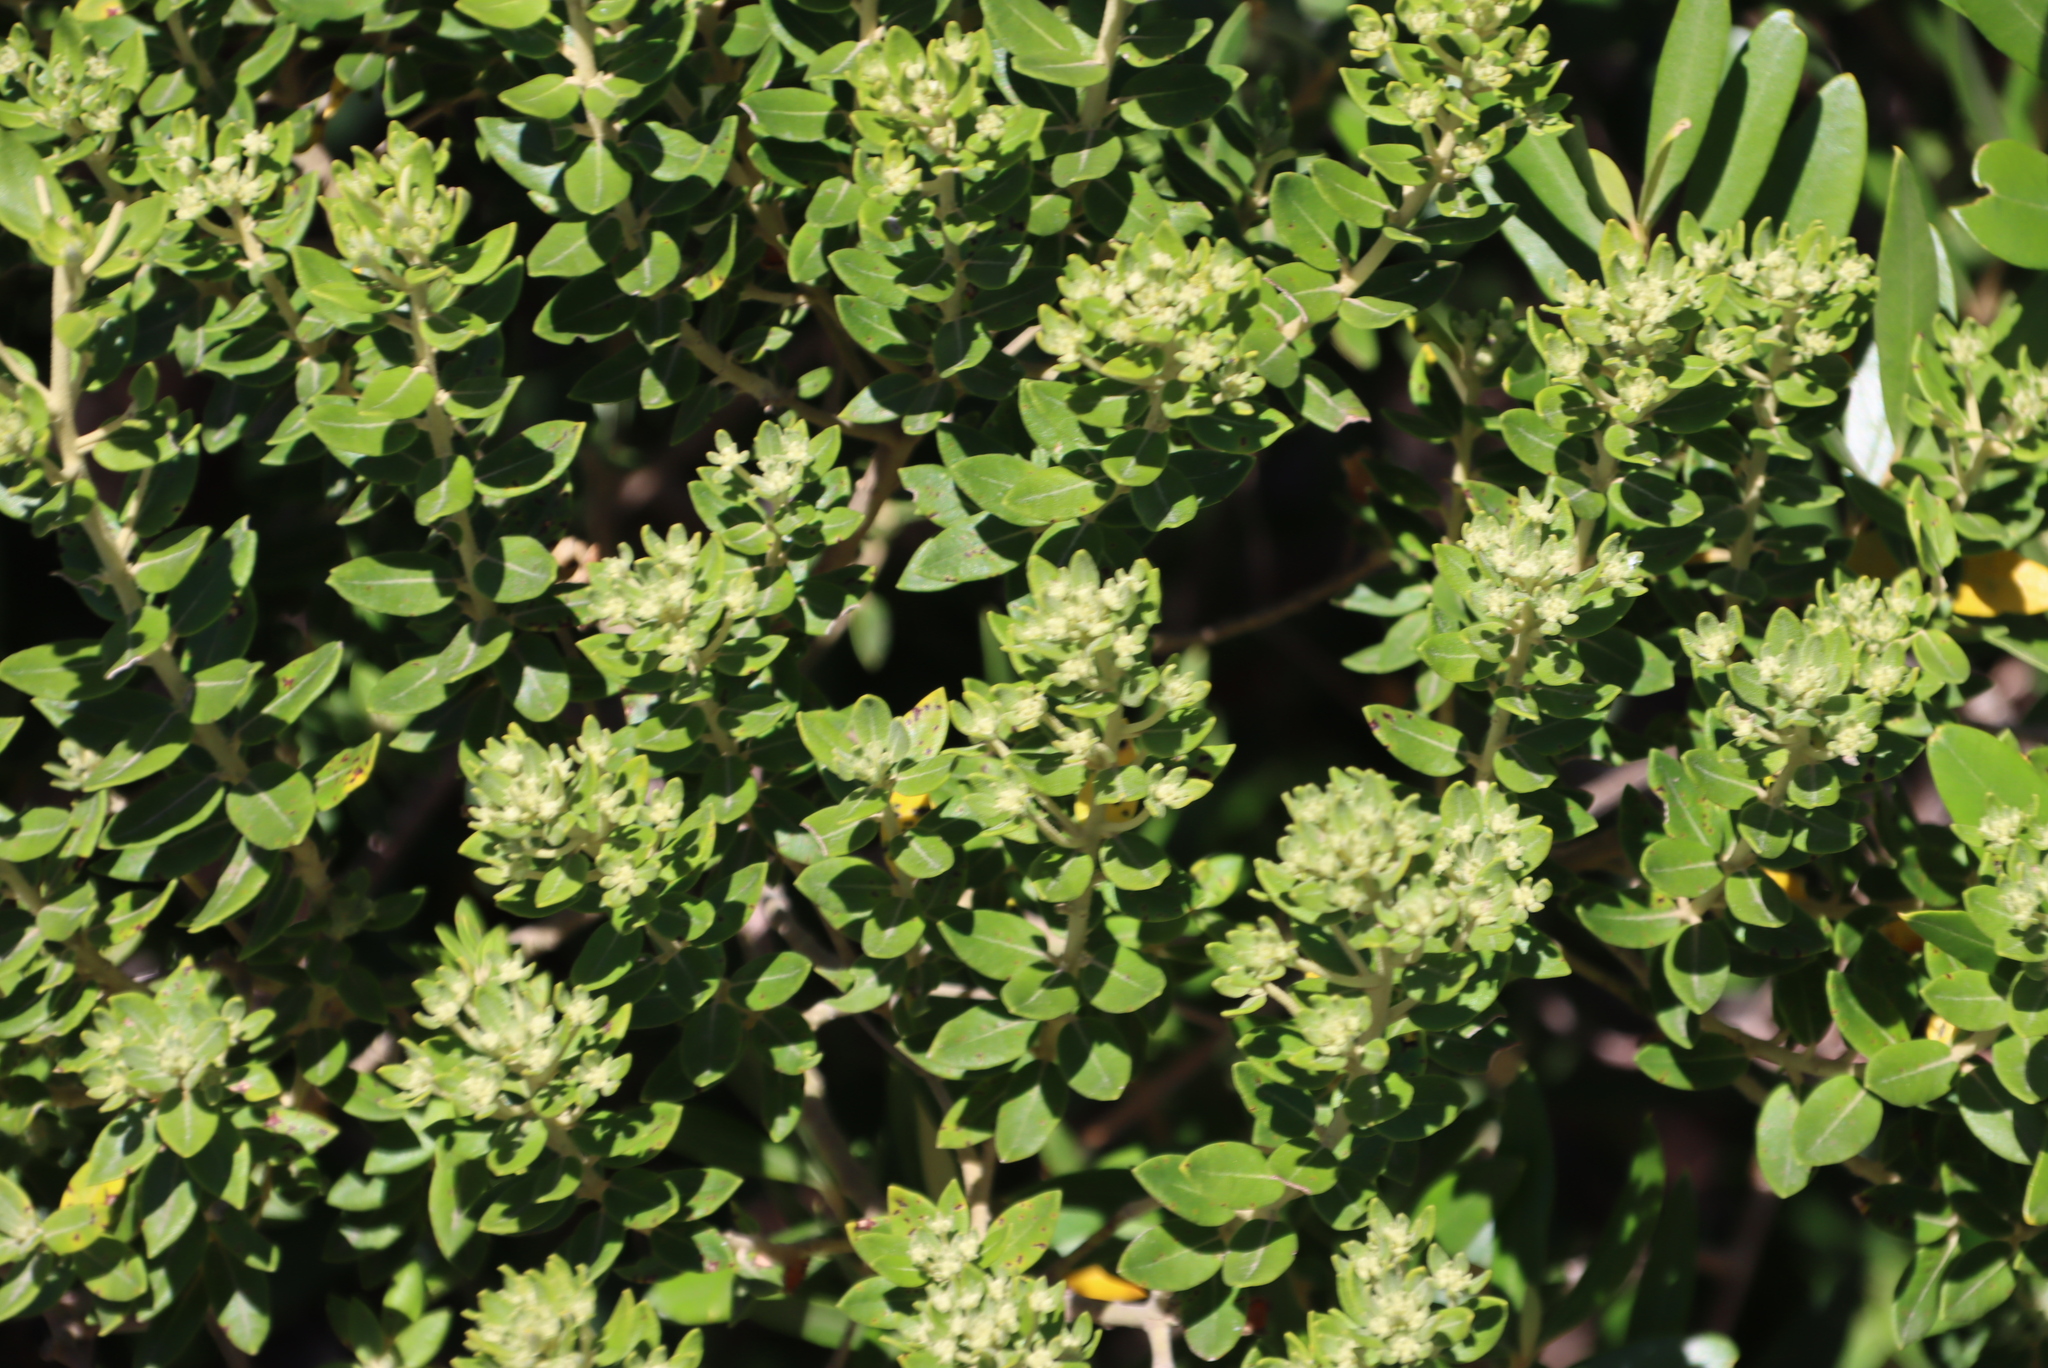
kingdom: Plantae
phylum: Tracheophyta
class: Magnoliopsida
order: Rosales
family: Rhamnaceae
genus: Phylica
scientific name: Phylica buxifolia
